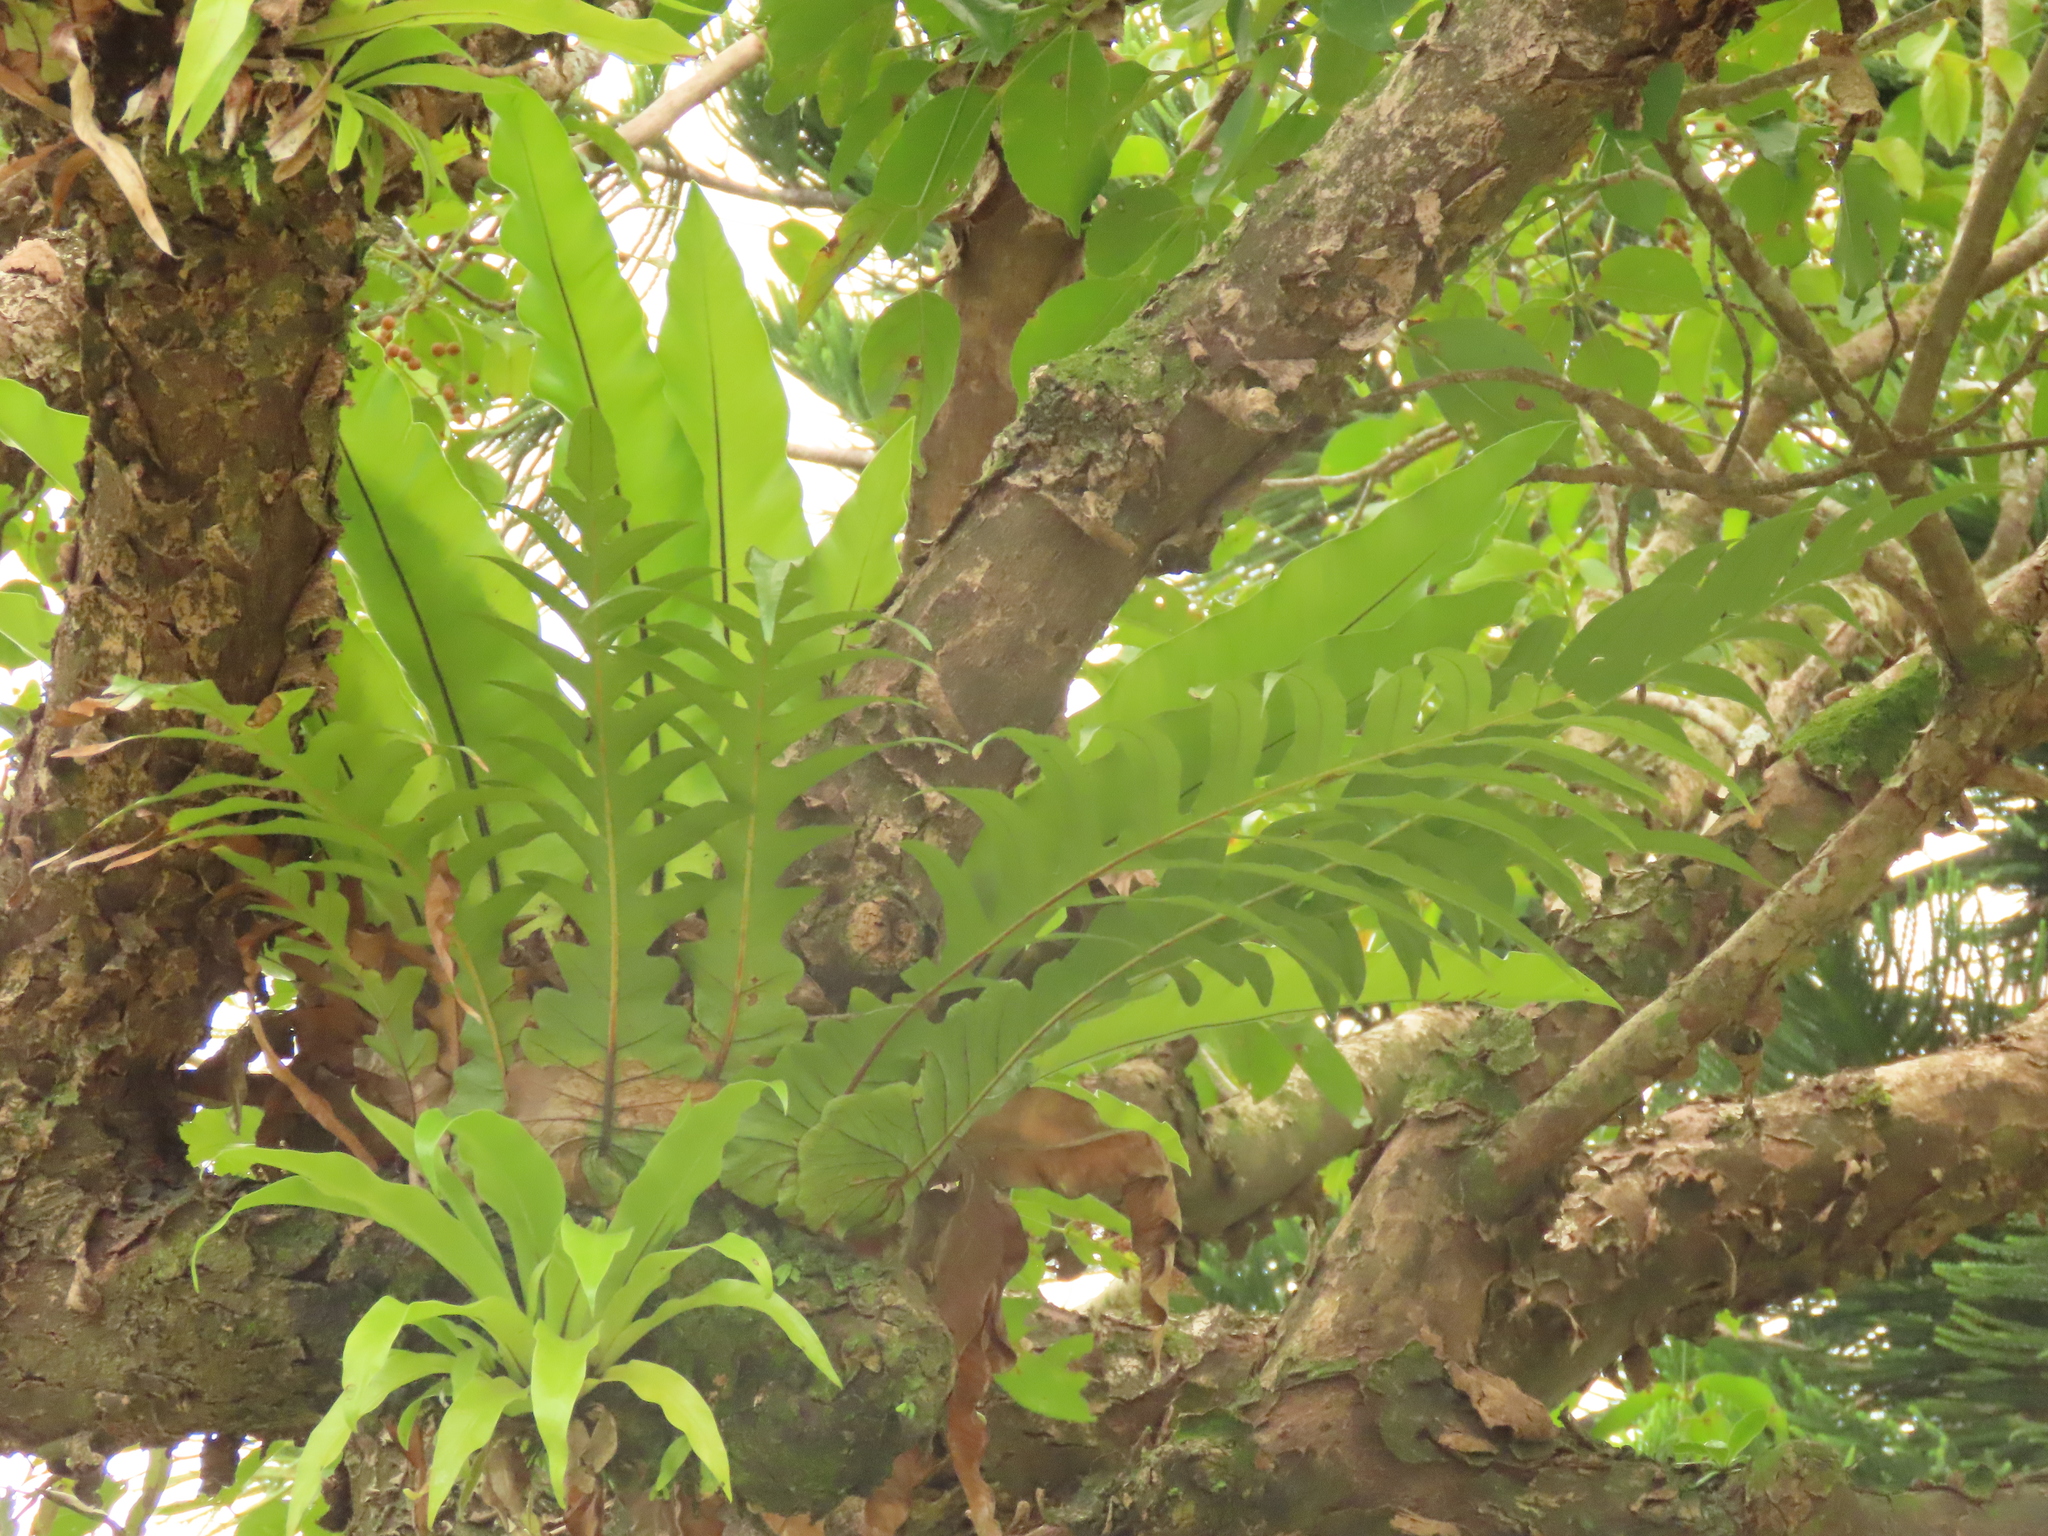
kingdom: Plantae
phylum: Tracheophyta
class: Polypodiopsida
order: Polypodiales
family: Polypodiaceae
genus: Drynaria
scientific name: Drynaria coronans
